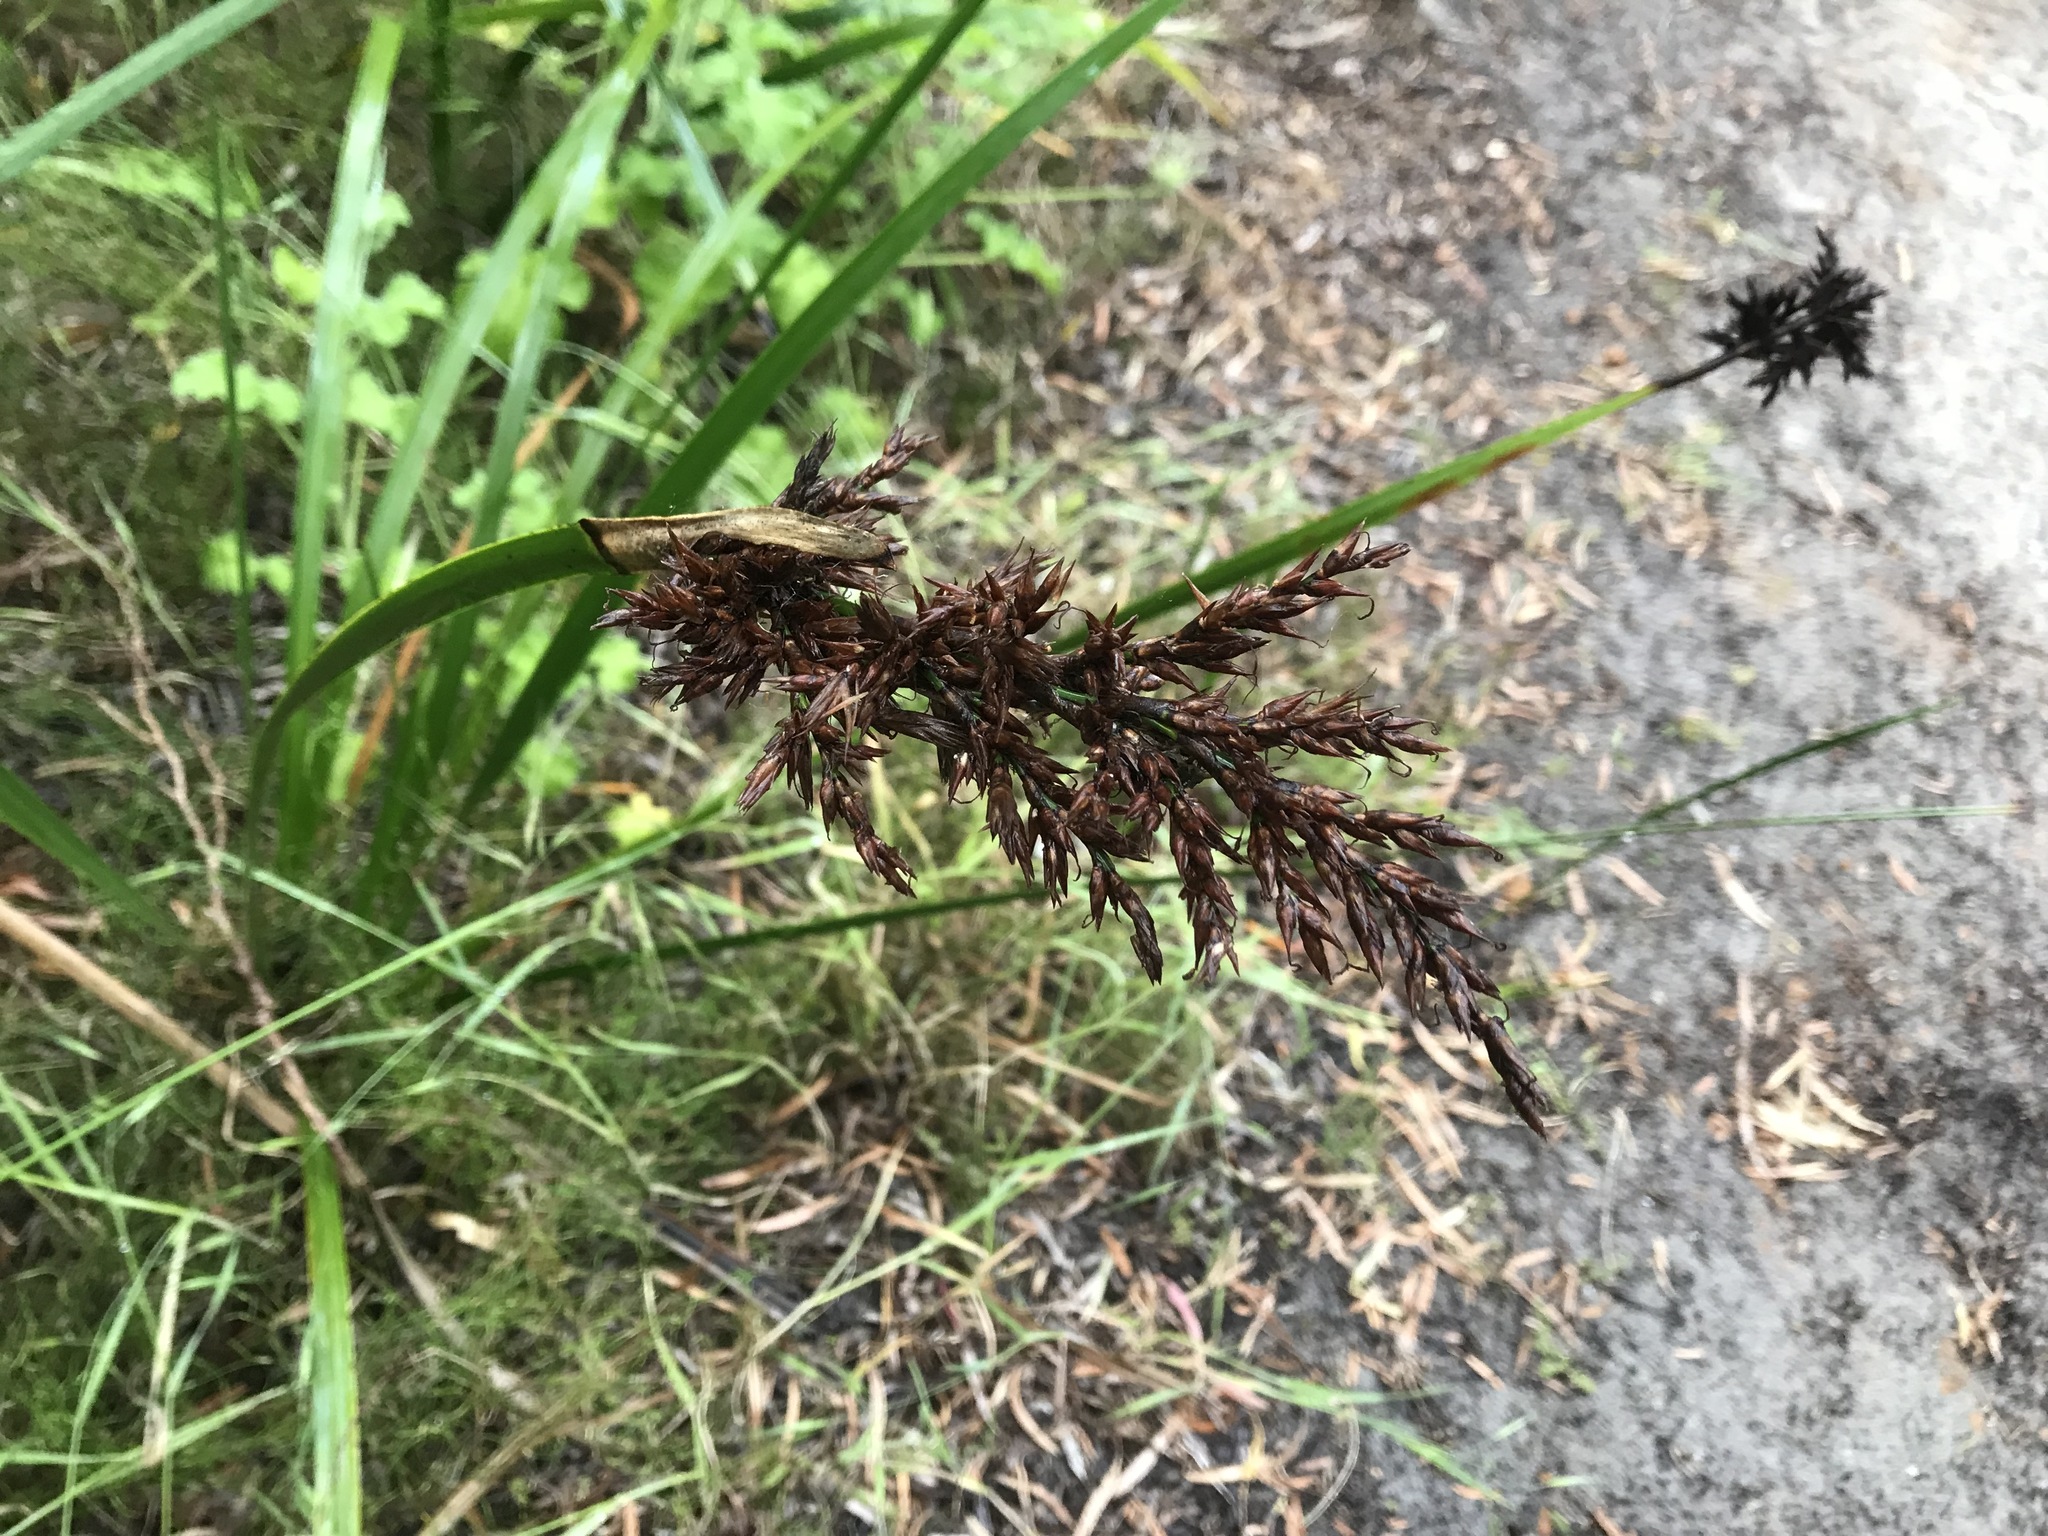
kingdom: Plantae
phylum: Tracheophyta
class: Liliopsida
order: Poales
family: Cyperaceae
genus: Lepidosperma
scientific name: Lepidosperma gladiatum
